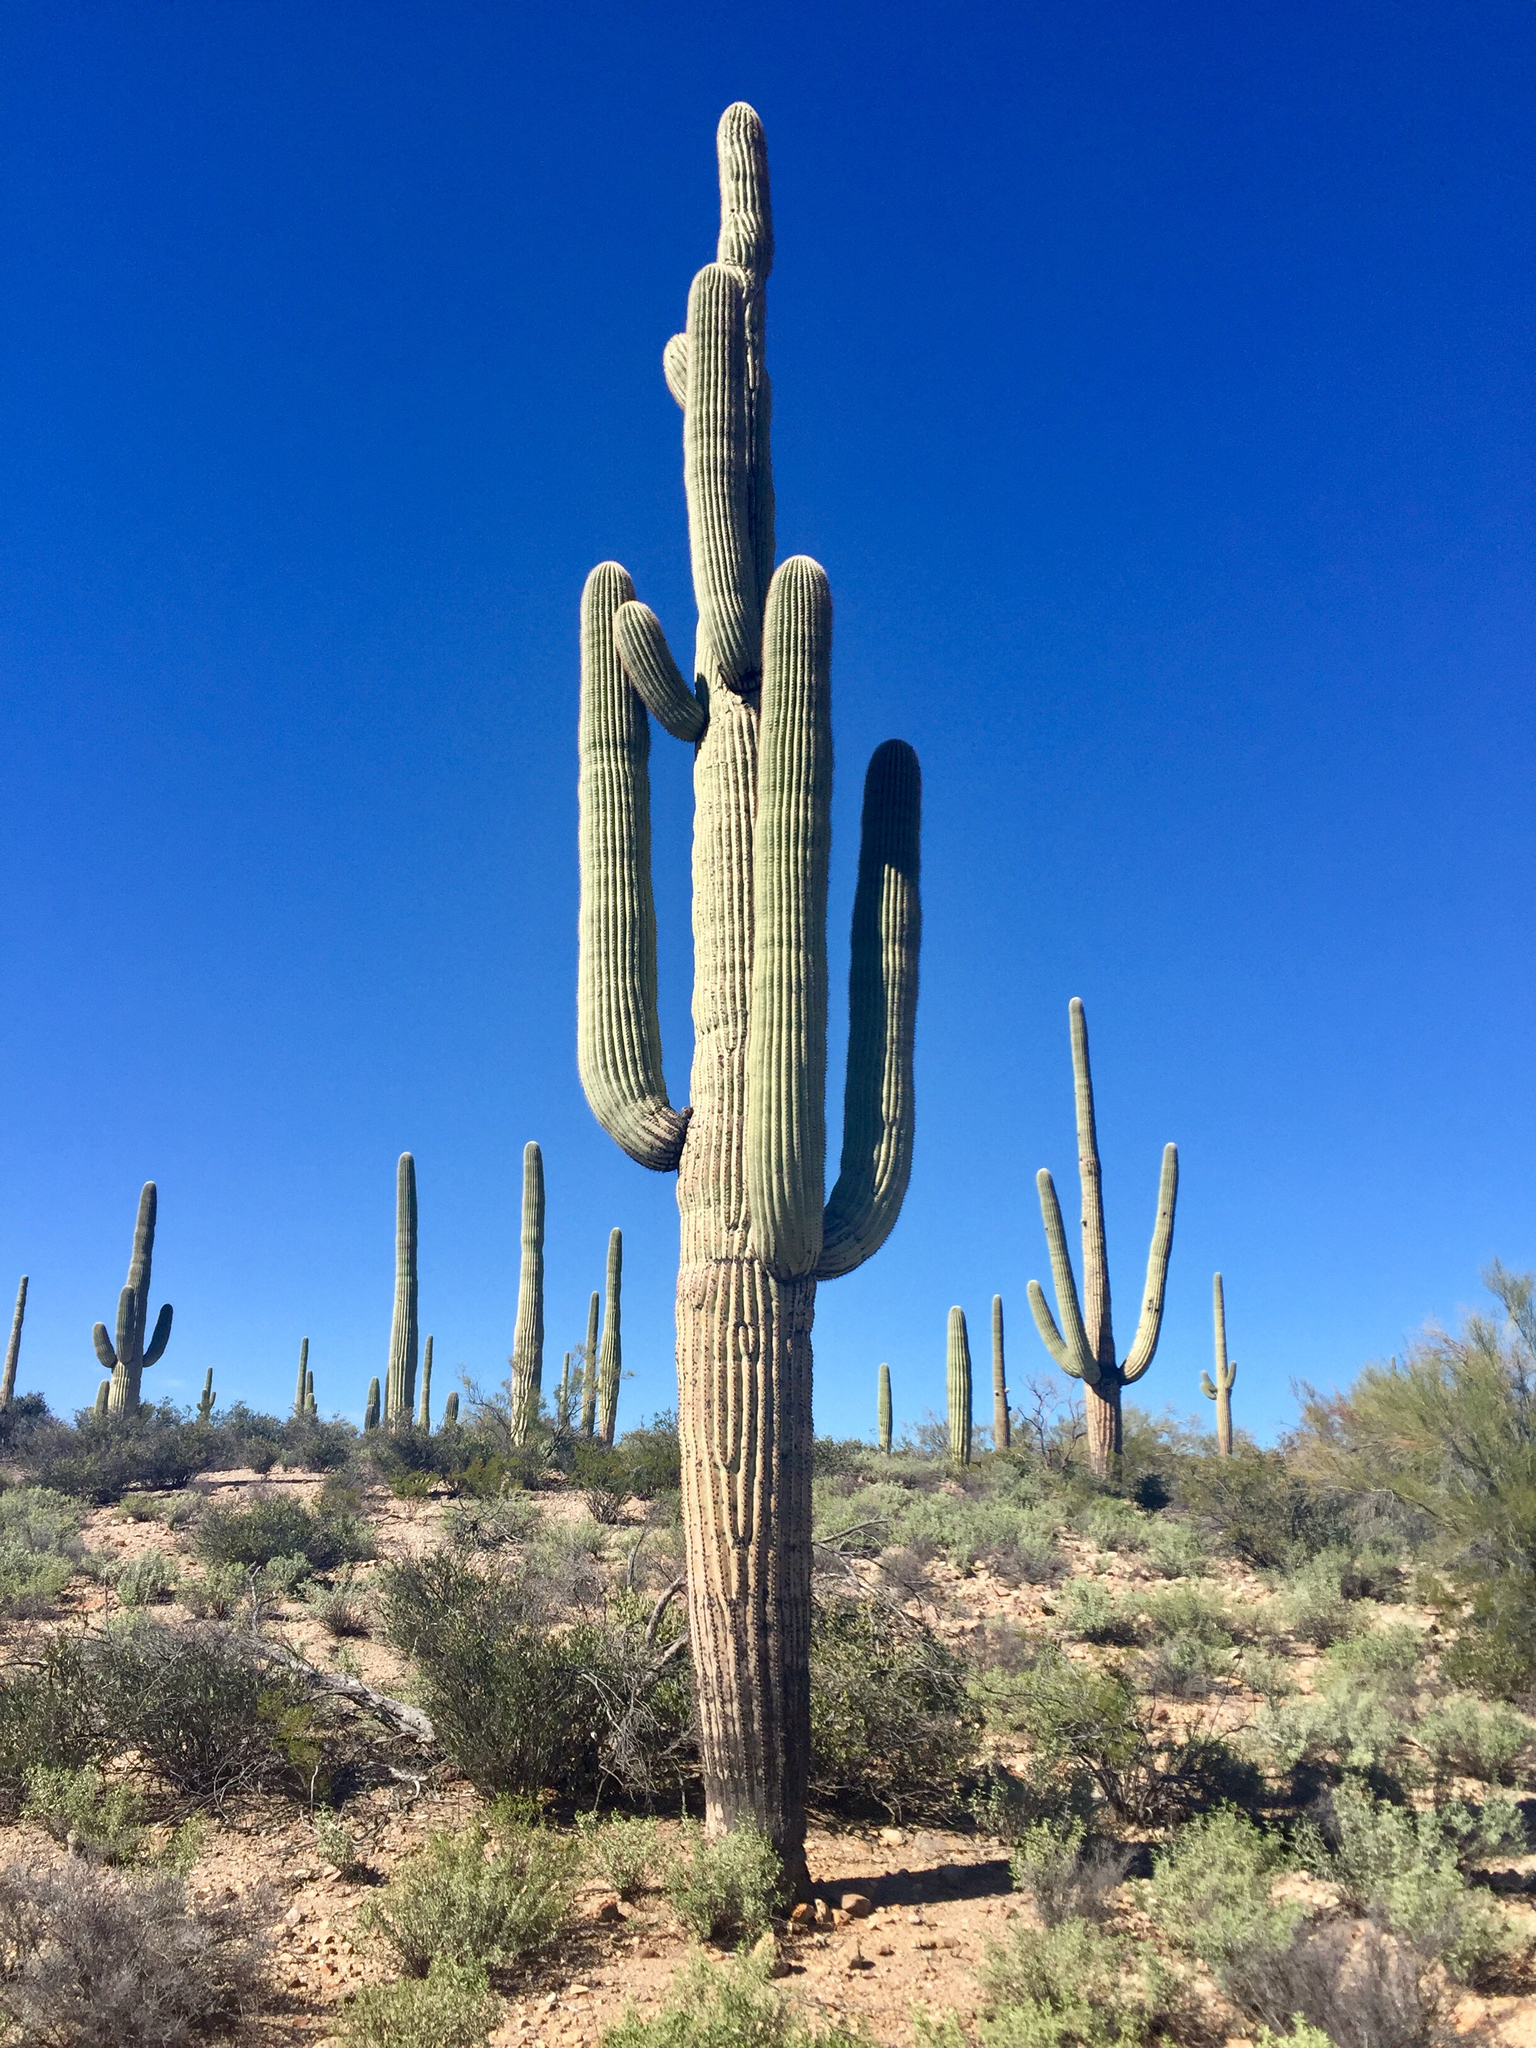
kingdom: Plantae
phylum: Tracheophyta
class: Magnoliopsida
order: Caryophyllales
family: Cactaceae
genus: Carnegiea
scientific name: Carnegiea gigantea
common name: Saguaro
